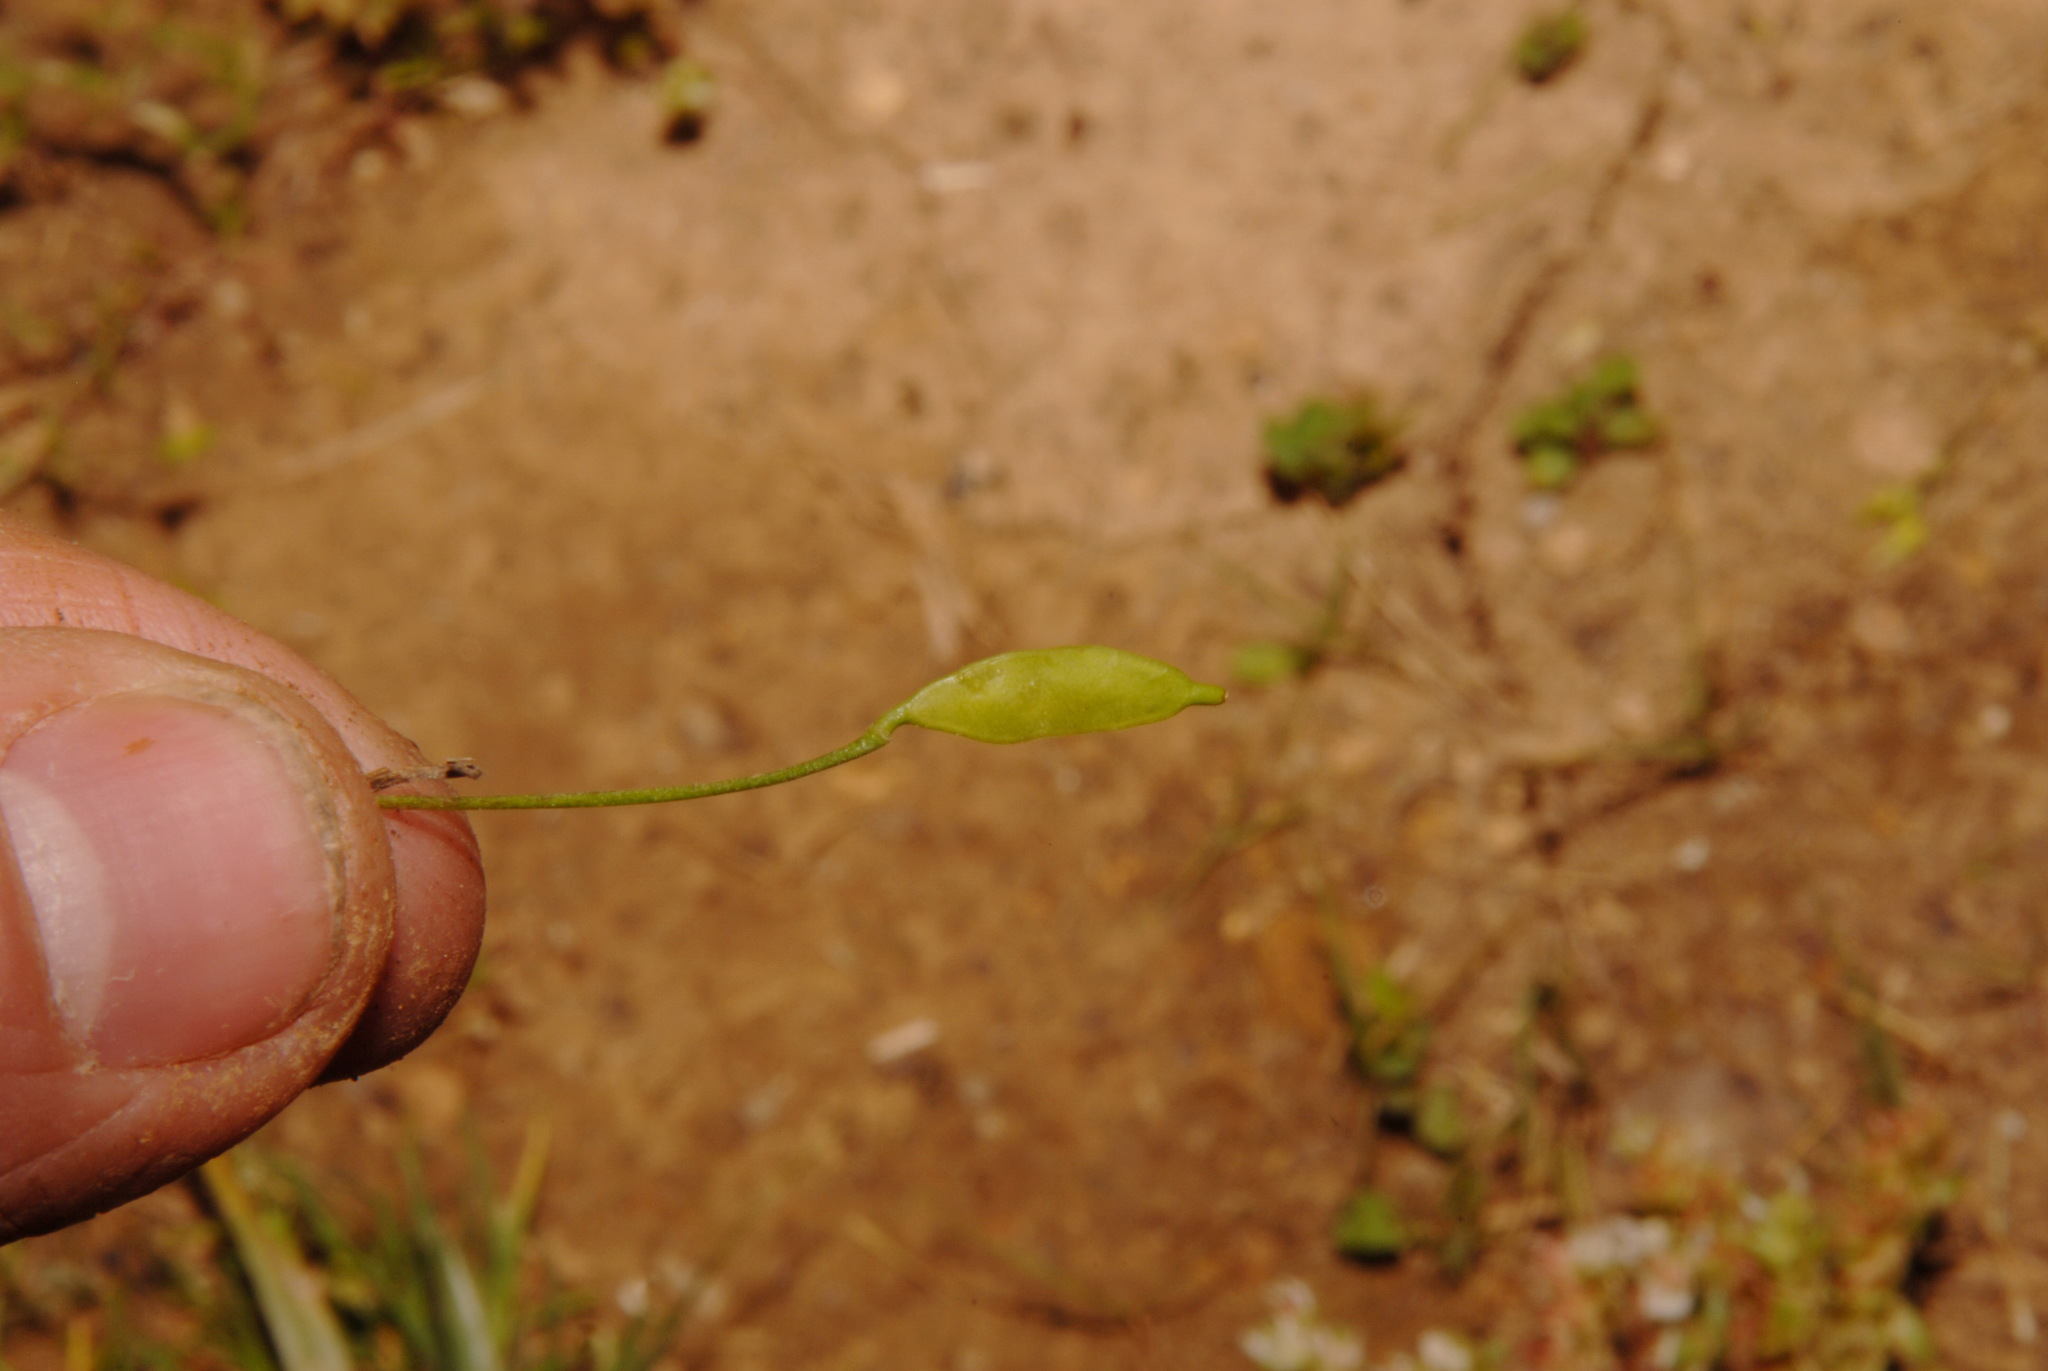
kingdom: Plantae
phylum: Tracheophyta
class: Magnoliopsida
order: Brassicales
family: Brassicaceae
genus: Leavenworthia
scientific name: Leavenworthia exigua
